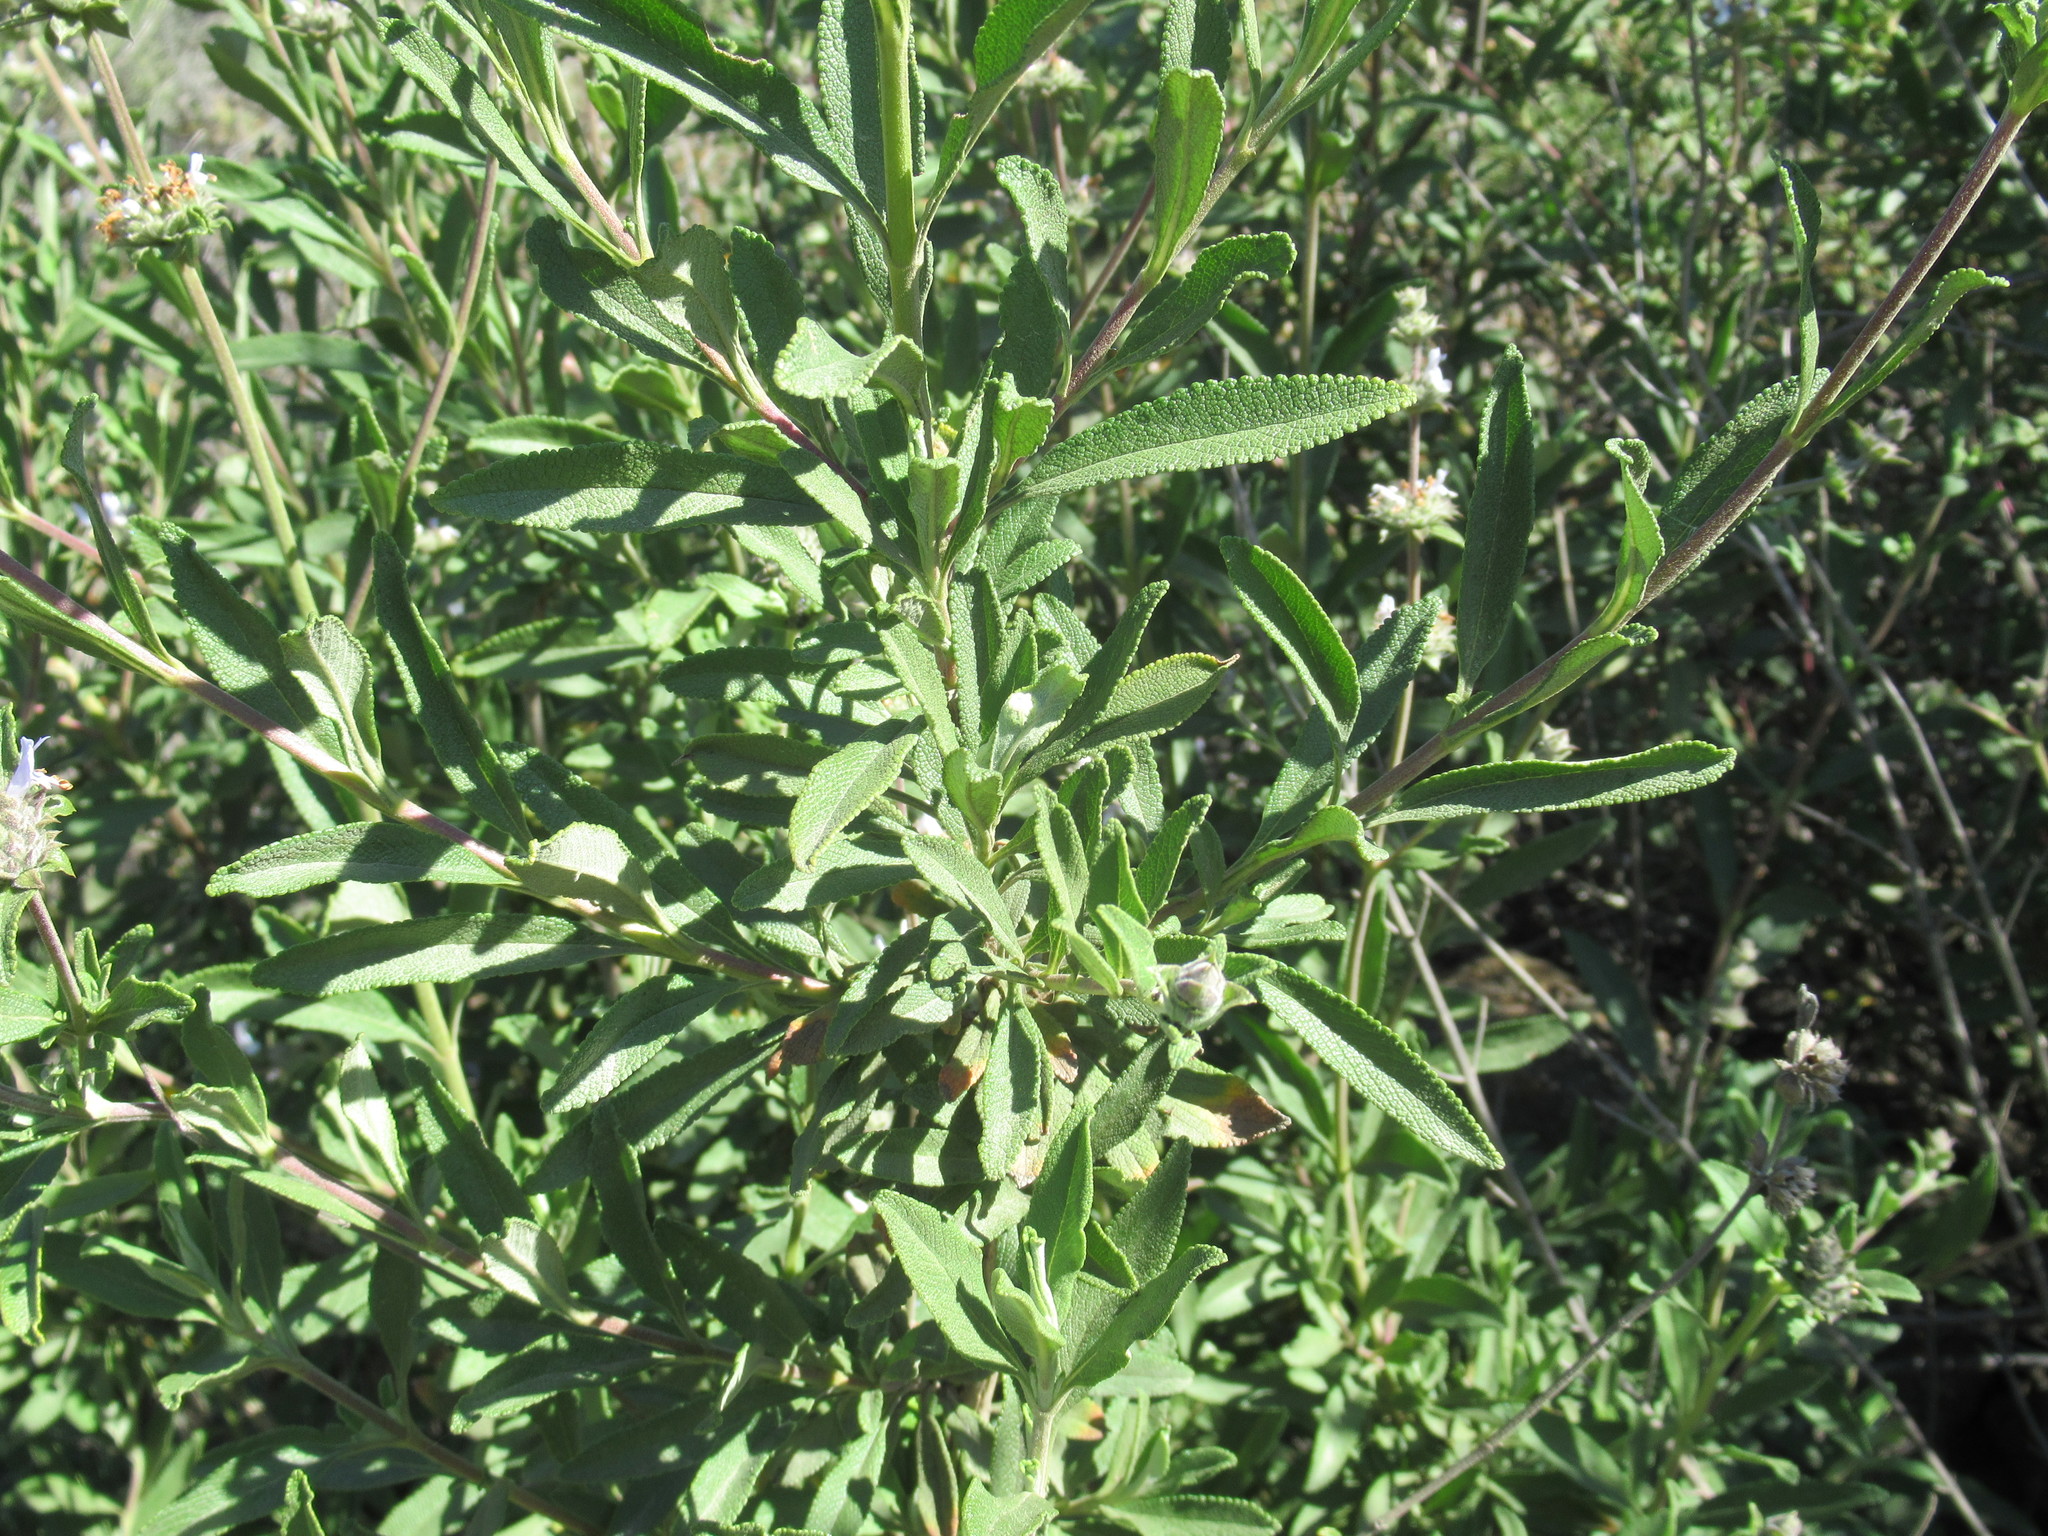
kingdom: Plantae
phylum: Tracheophyta
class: Magnoliopsida
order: Lamiales
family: Lamiaceae
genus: Salvia
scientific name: Salvia mellifera
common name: Black sage
